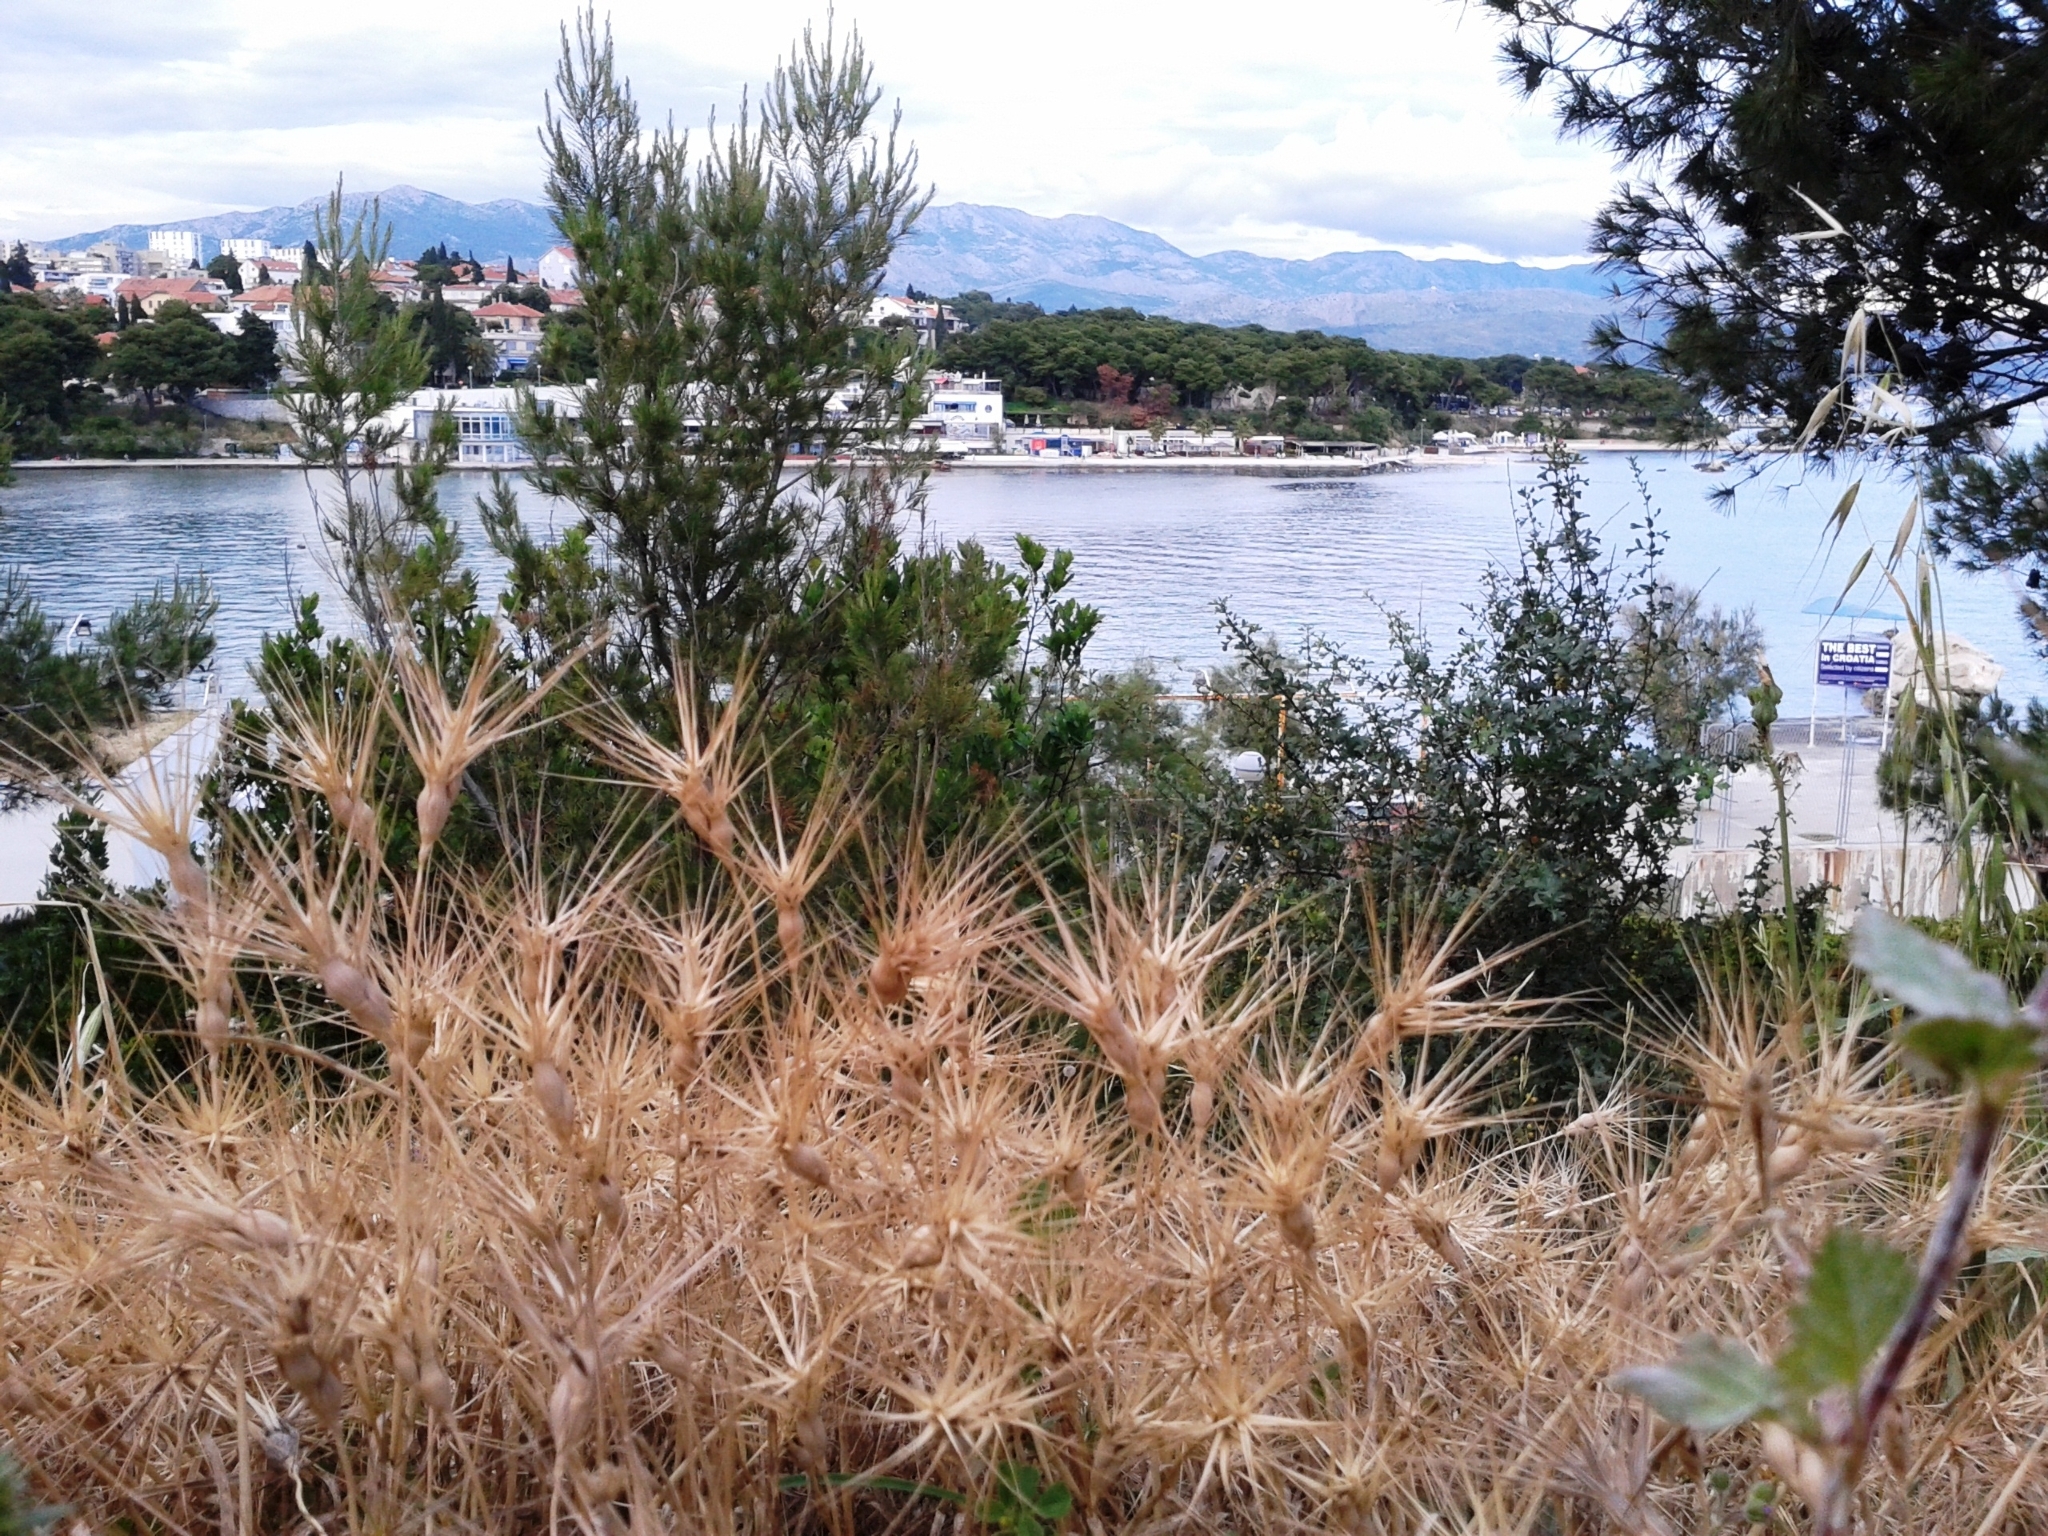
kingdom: Plantae
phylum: Tracheophyta
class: Liliopsida
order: Poales
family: Poaceae
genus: Aegilops
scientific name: Aegilops geniculata
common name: Ovate goat grass
